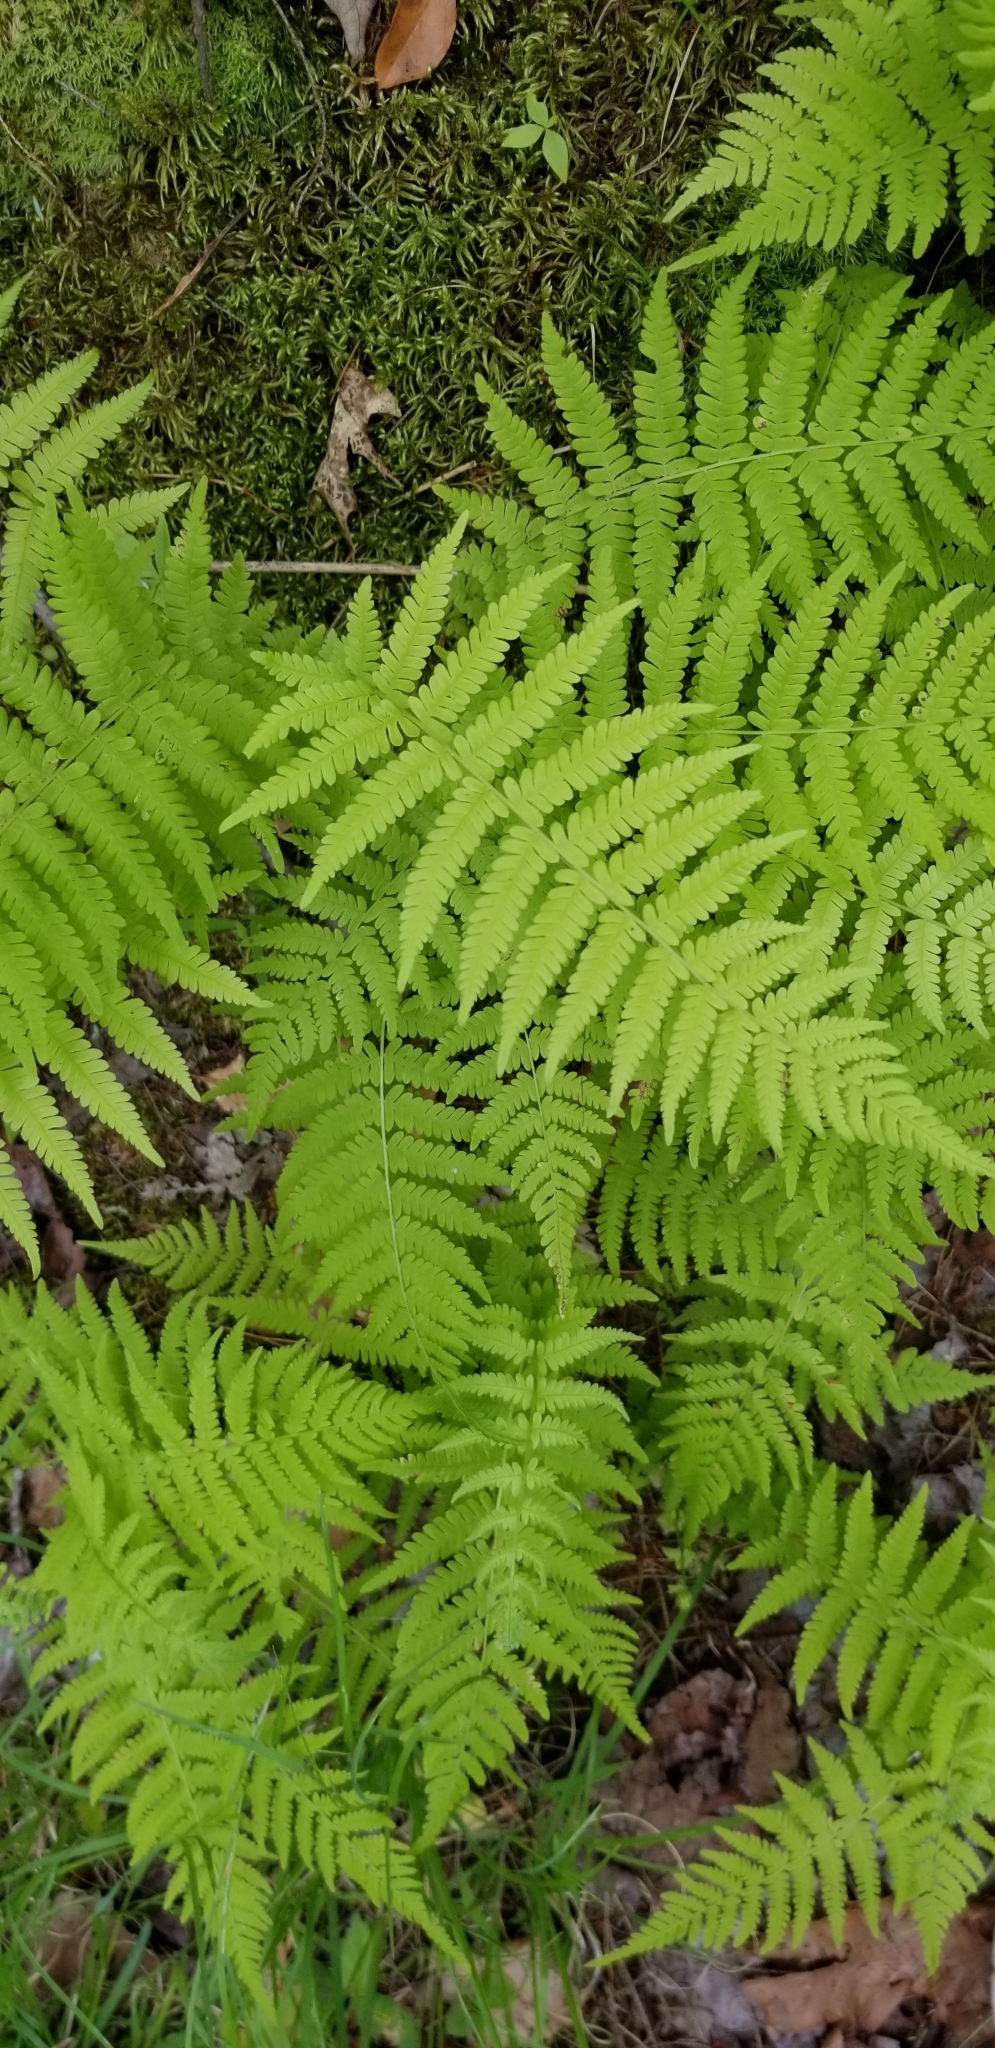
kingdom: Plantae
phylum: Tracheophyta
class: Polypodiopsida
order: Polypodiales
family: Thelypteridaceae
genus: Amauropelta
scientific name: Amauropelta noveboracensis
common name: New york fern
